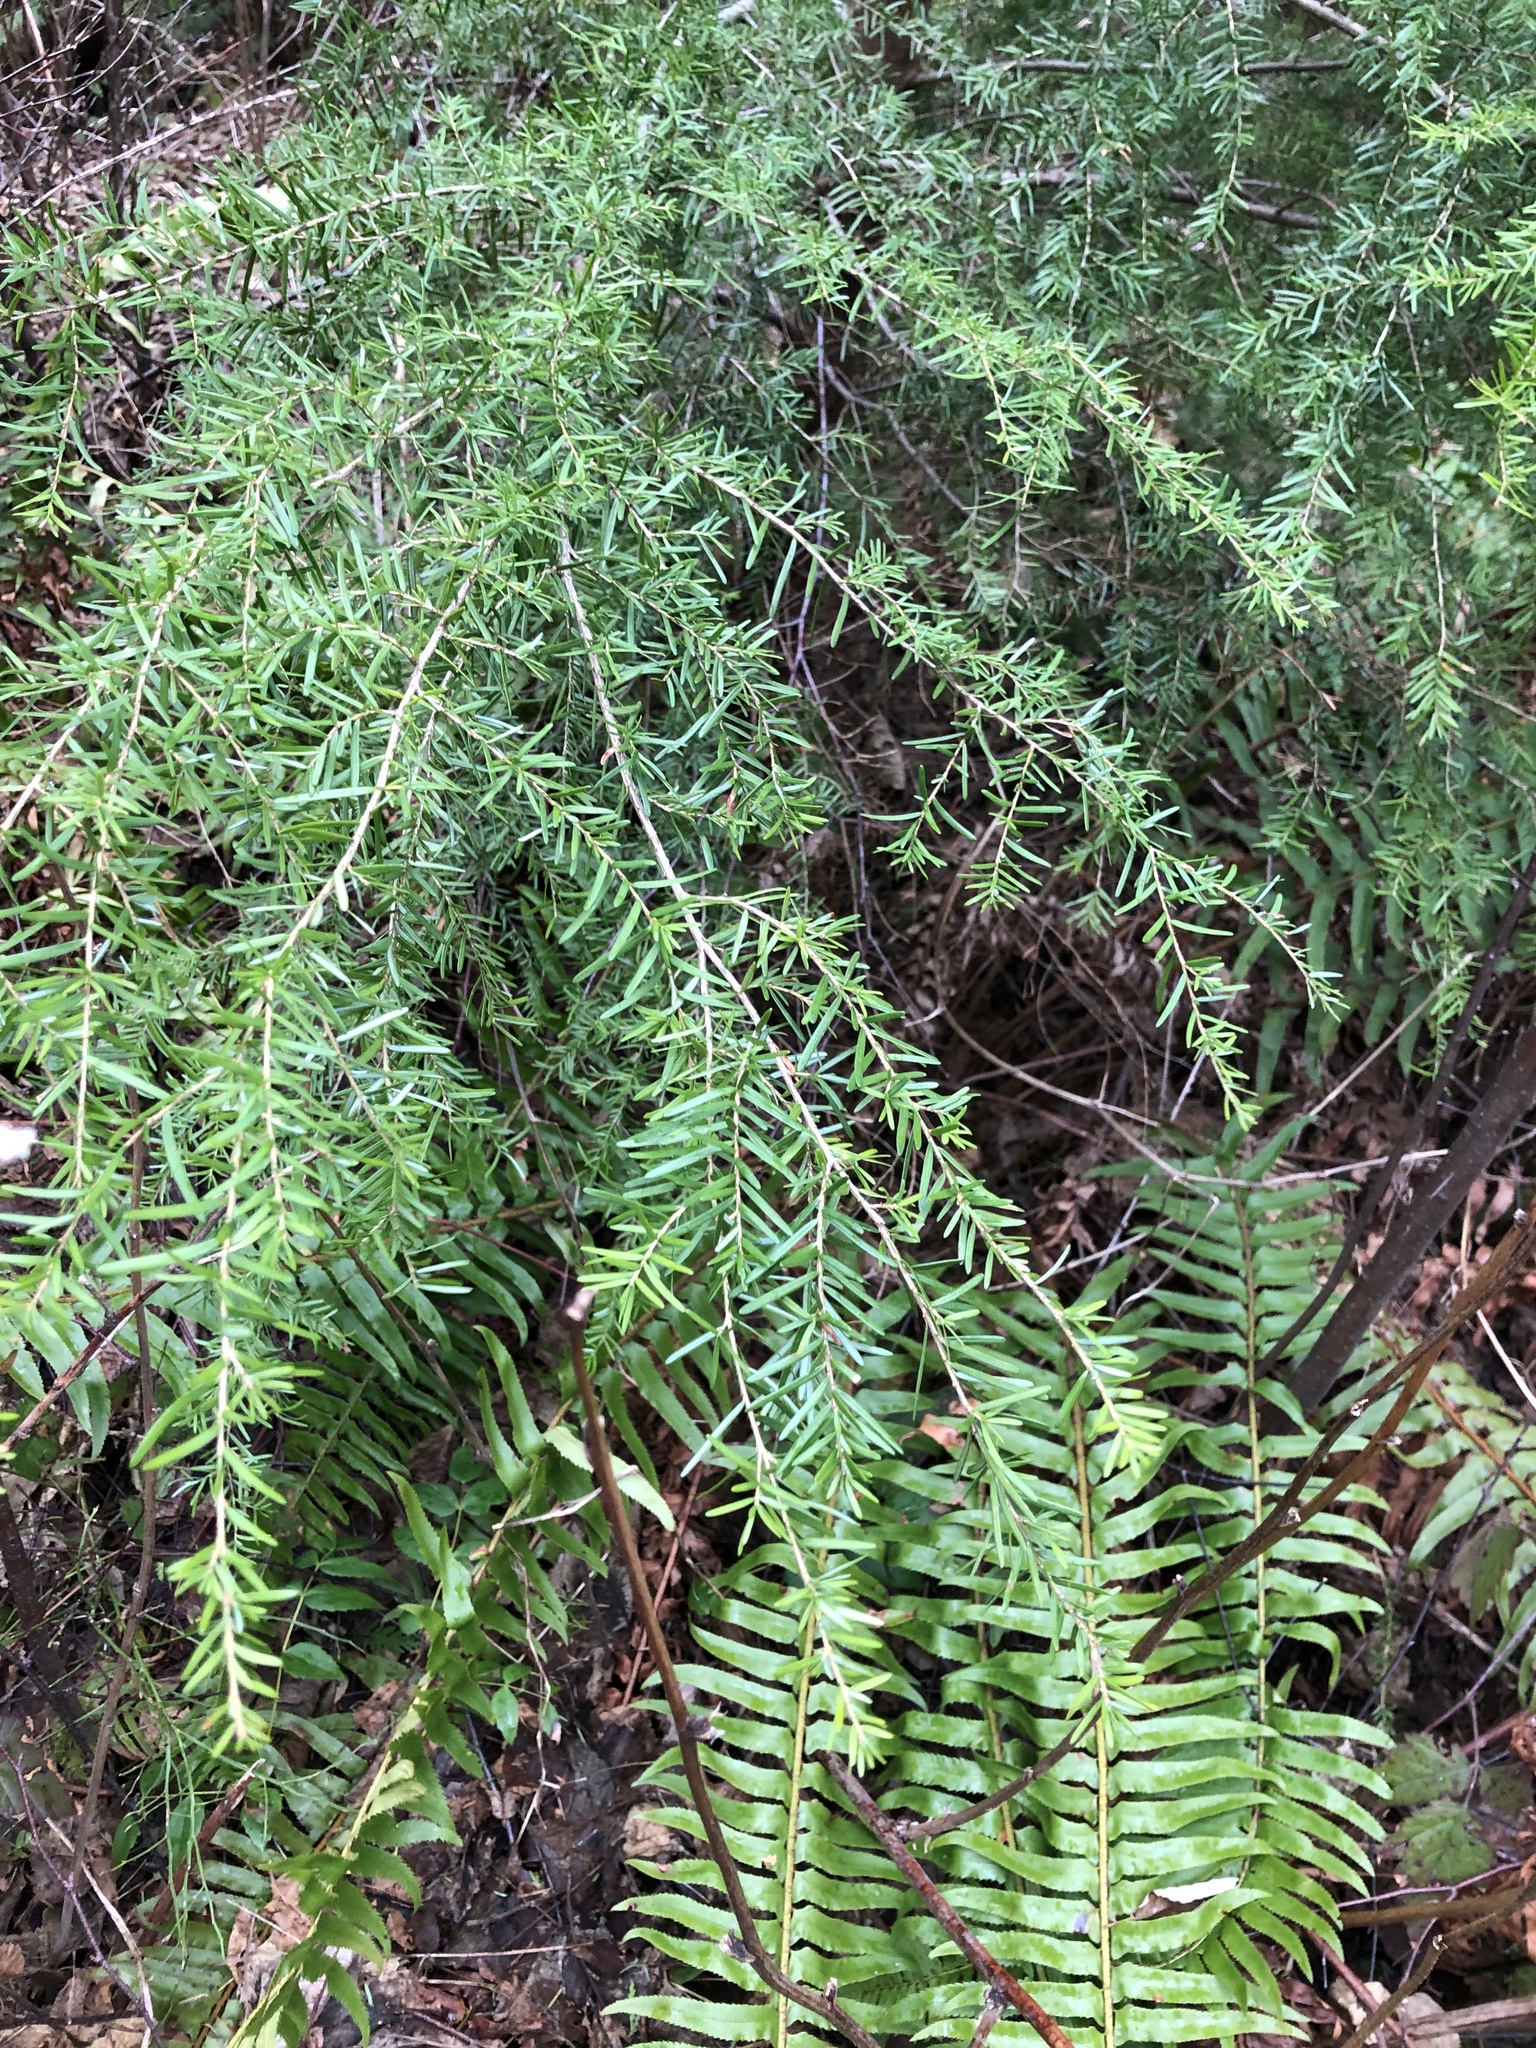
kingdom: Plantae
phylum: Tracheophyta
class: Pinopsida
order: Pinales
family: Pinaceae
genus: Tsuga
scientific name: Tsuga heterophylla
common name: Western hemlock
